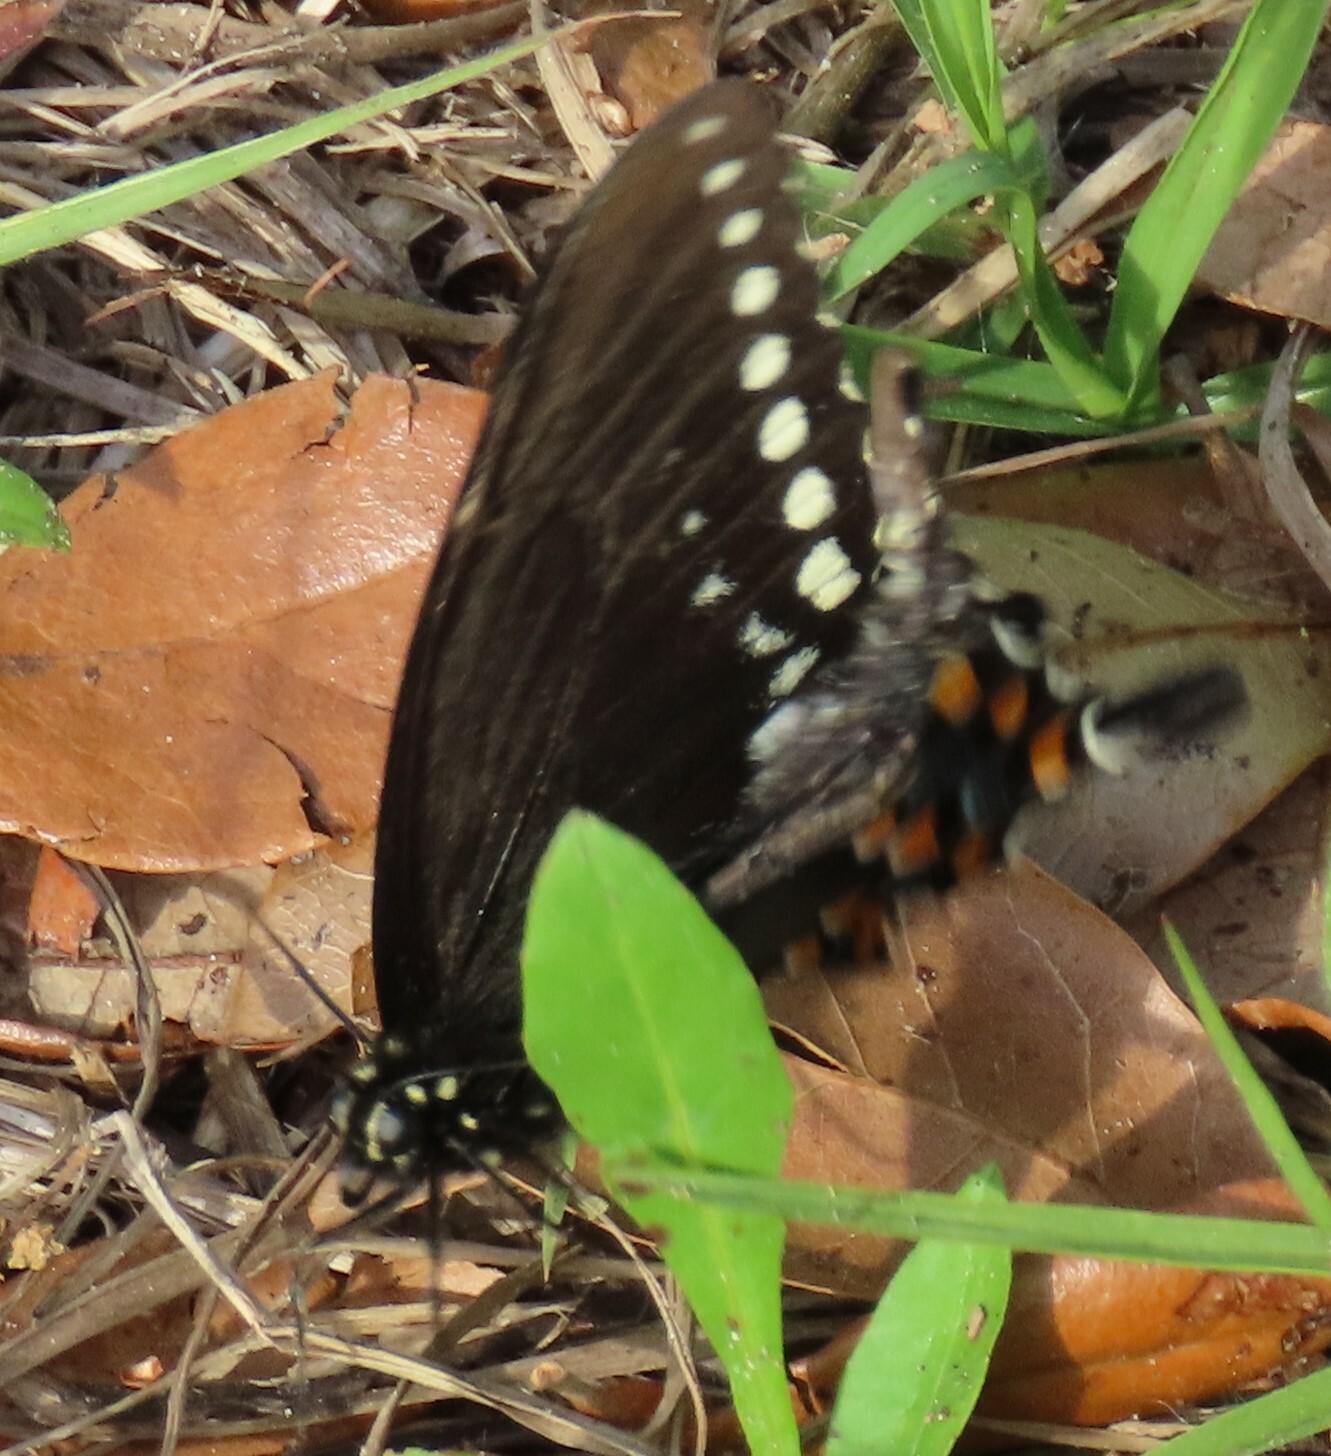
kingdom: Animalia
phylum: Arthropoda
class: Insecta
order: Lepidoptera
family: Papilionidae
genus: Papilio
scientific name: Papilio troilus
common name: Spicebush swallowtail
